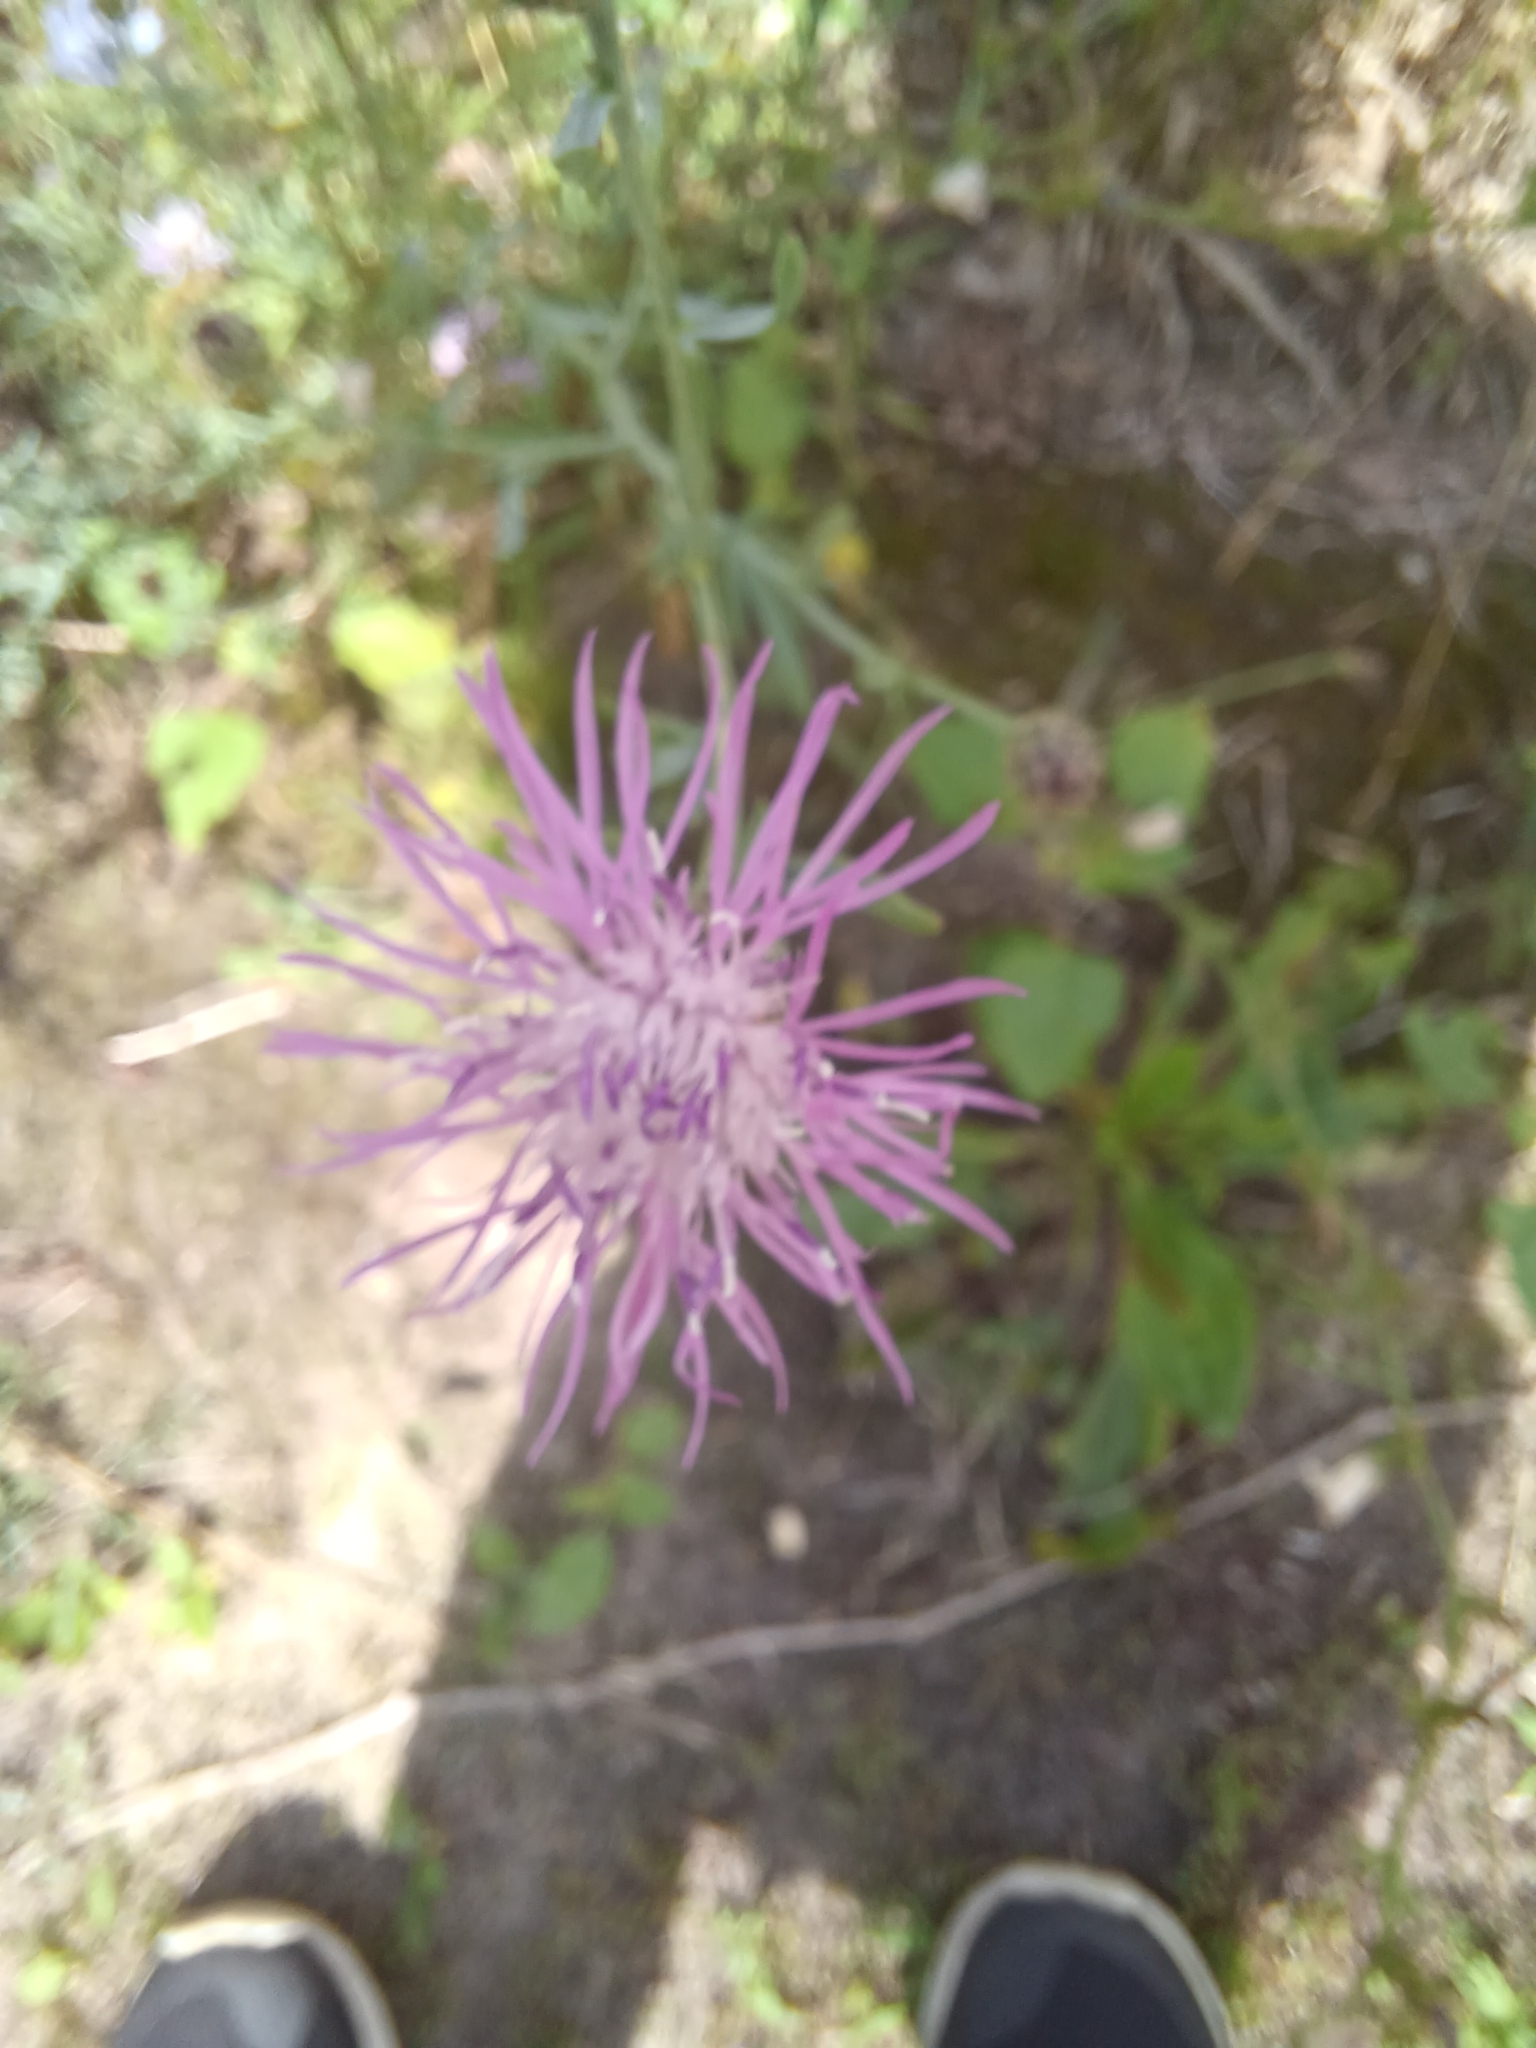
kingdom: Plantae
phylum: Tracheophyta
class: Magnoliopsida
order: Asterales
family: Asteraceae
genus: Centaurea
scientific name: Centaurea stoebe
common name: Spotted knapweed
